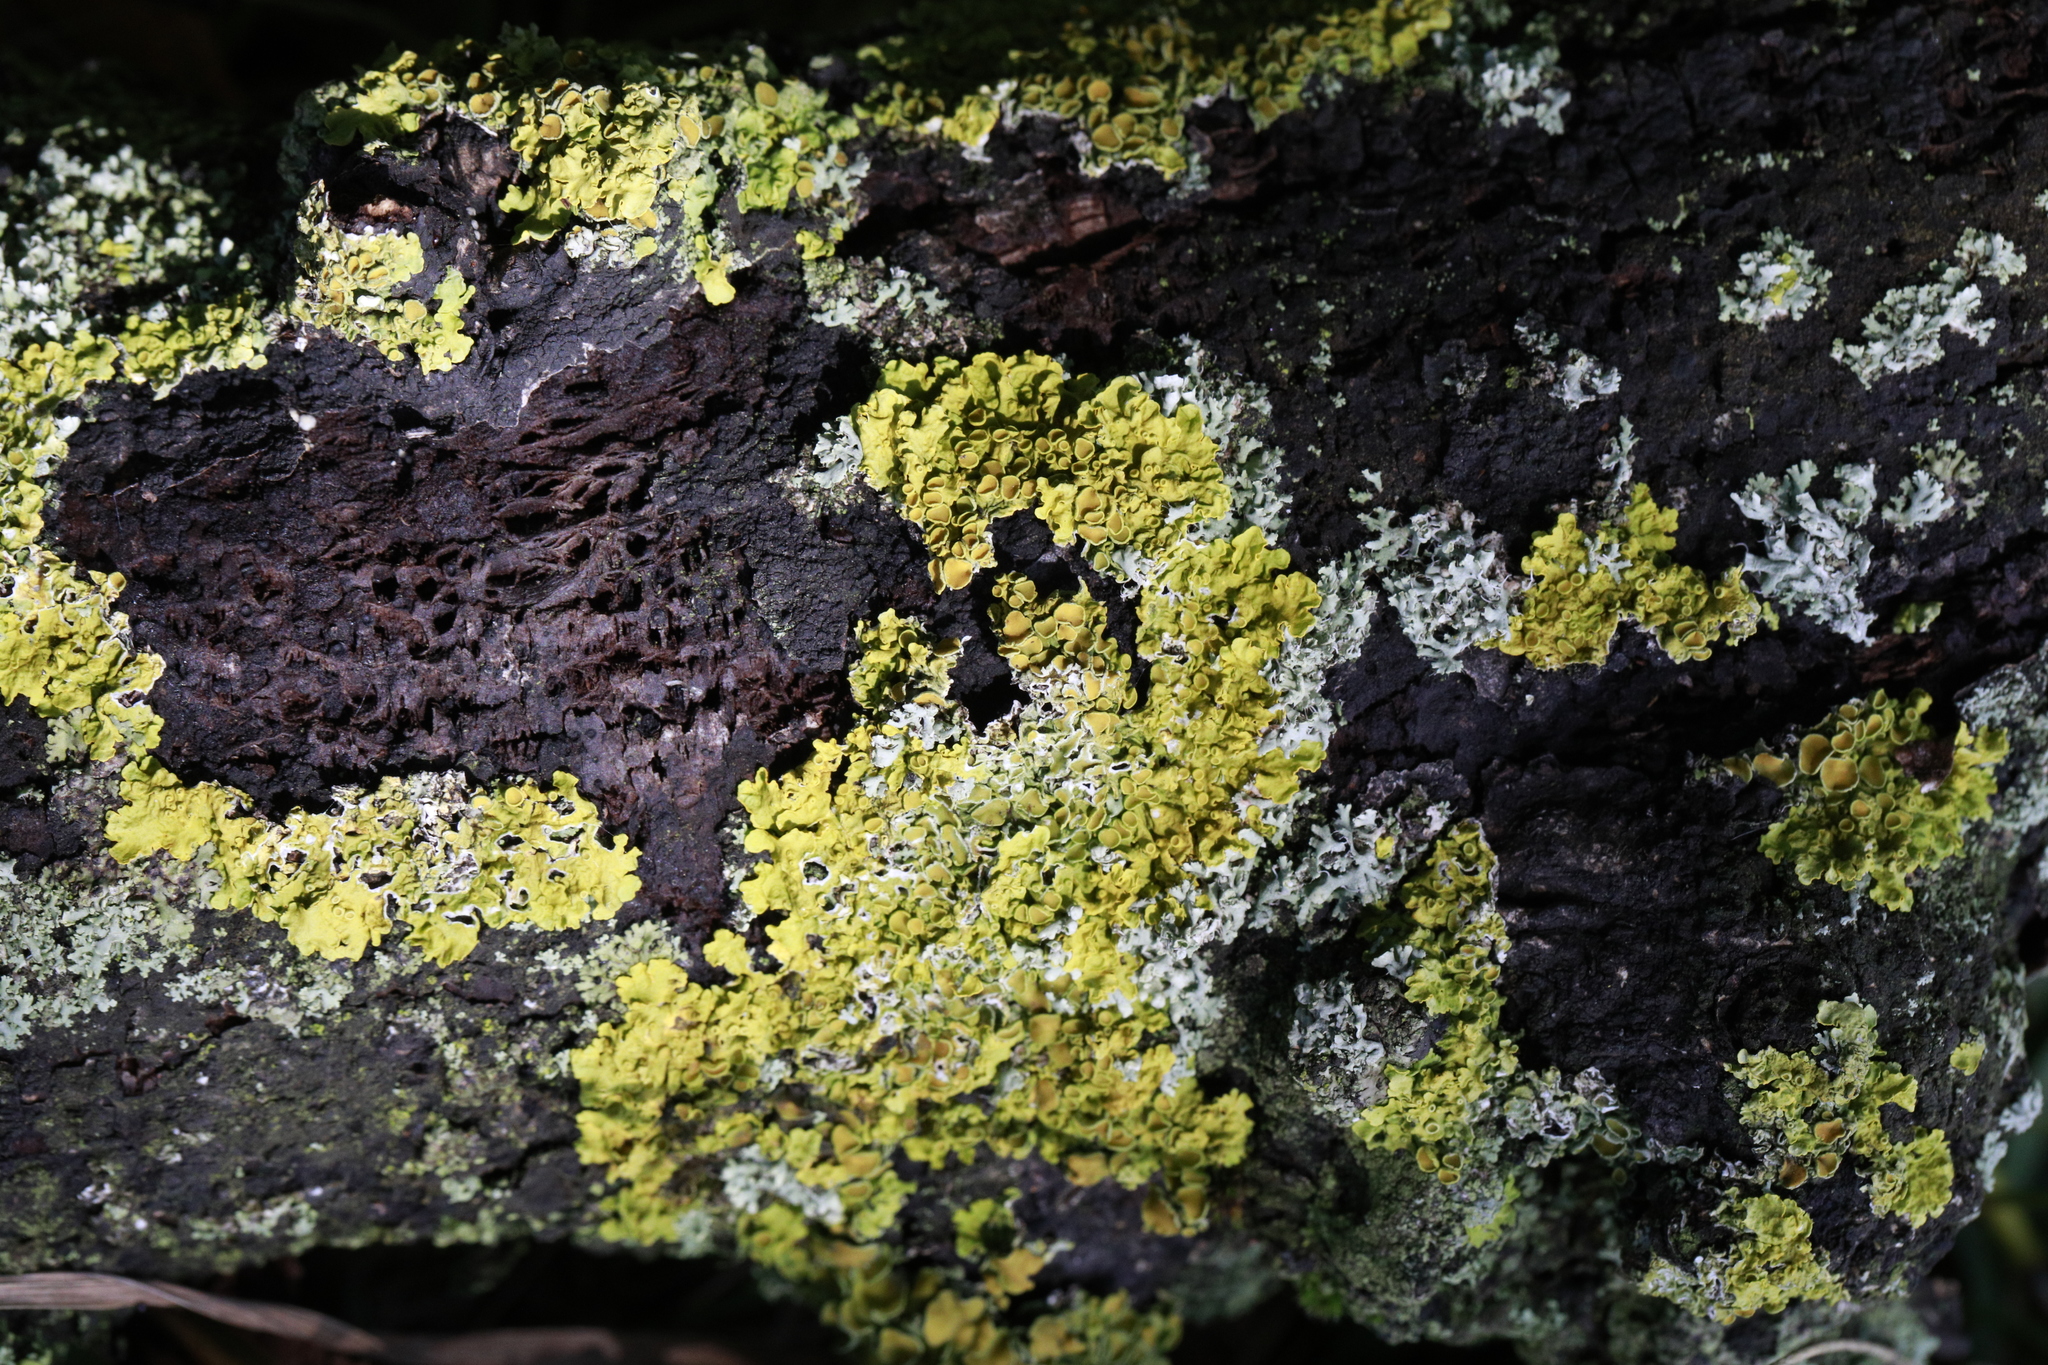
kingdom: Fungi
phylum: Ascomycota
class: Lecanoromycetes
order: Teloschistales
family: Teloschistaceae
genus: Xanthoria
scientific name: Xanthoria parietina
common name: Common orange lichen
